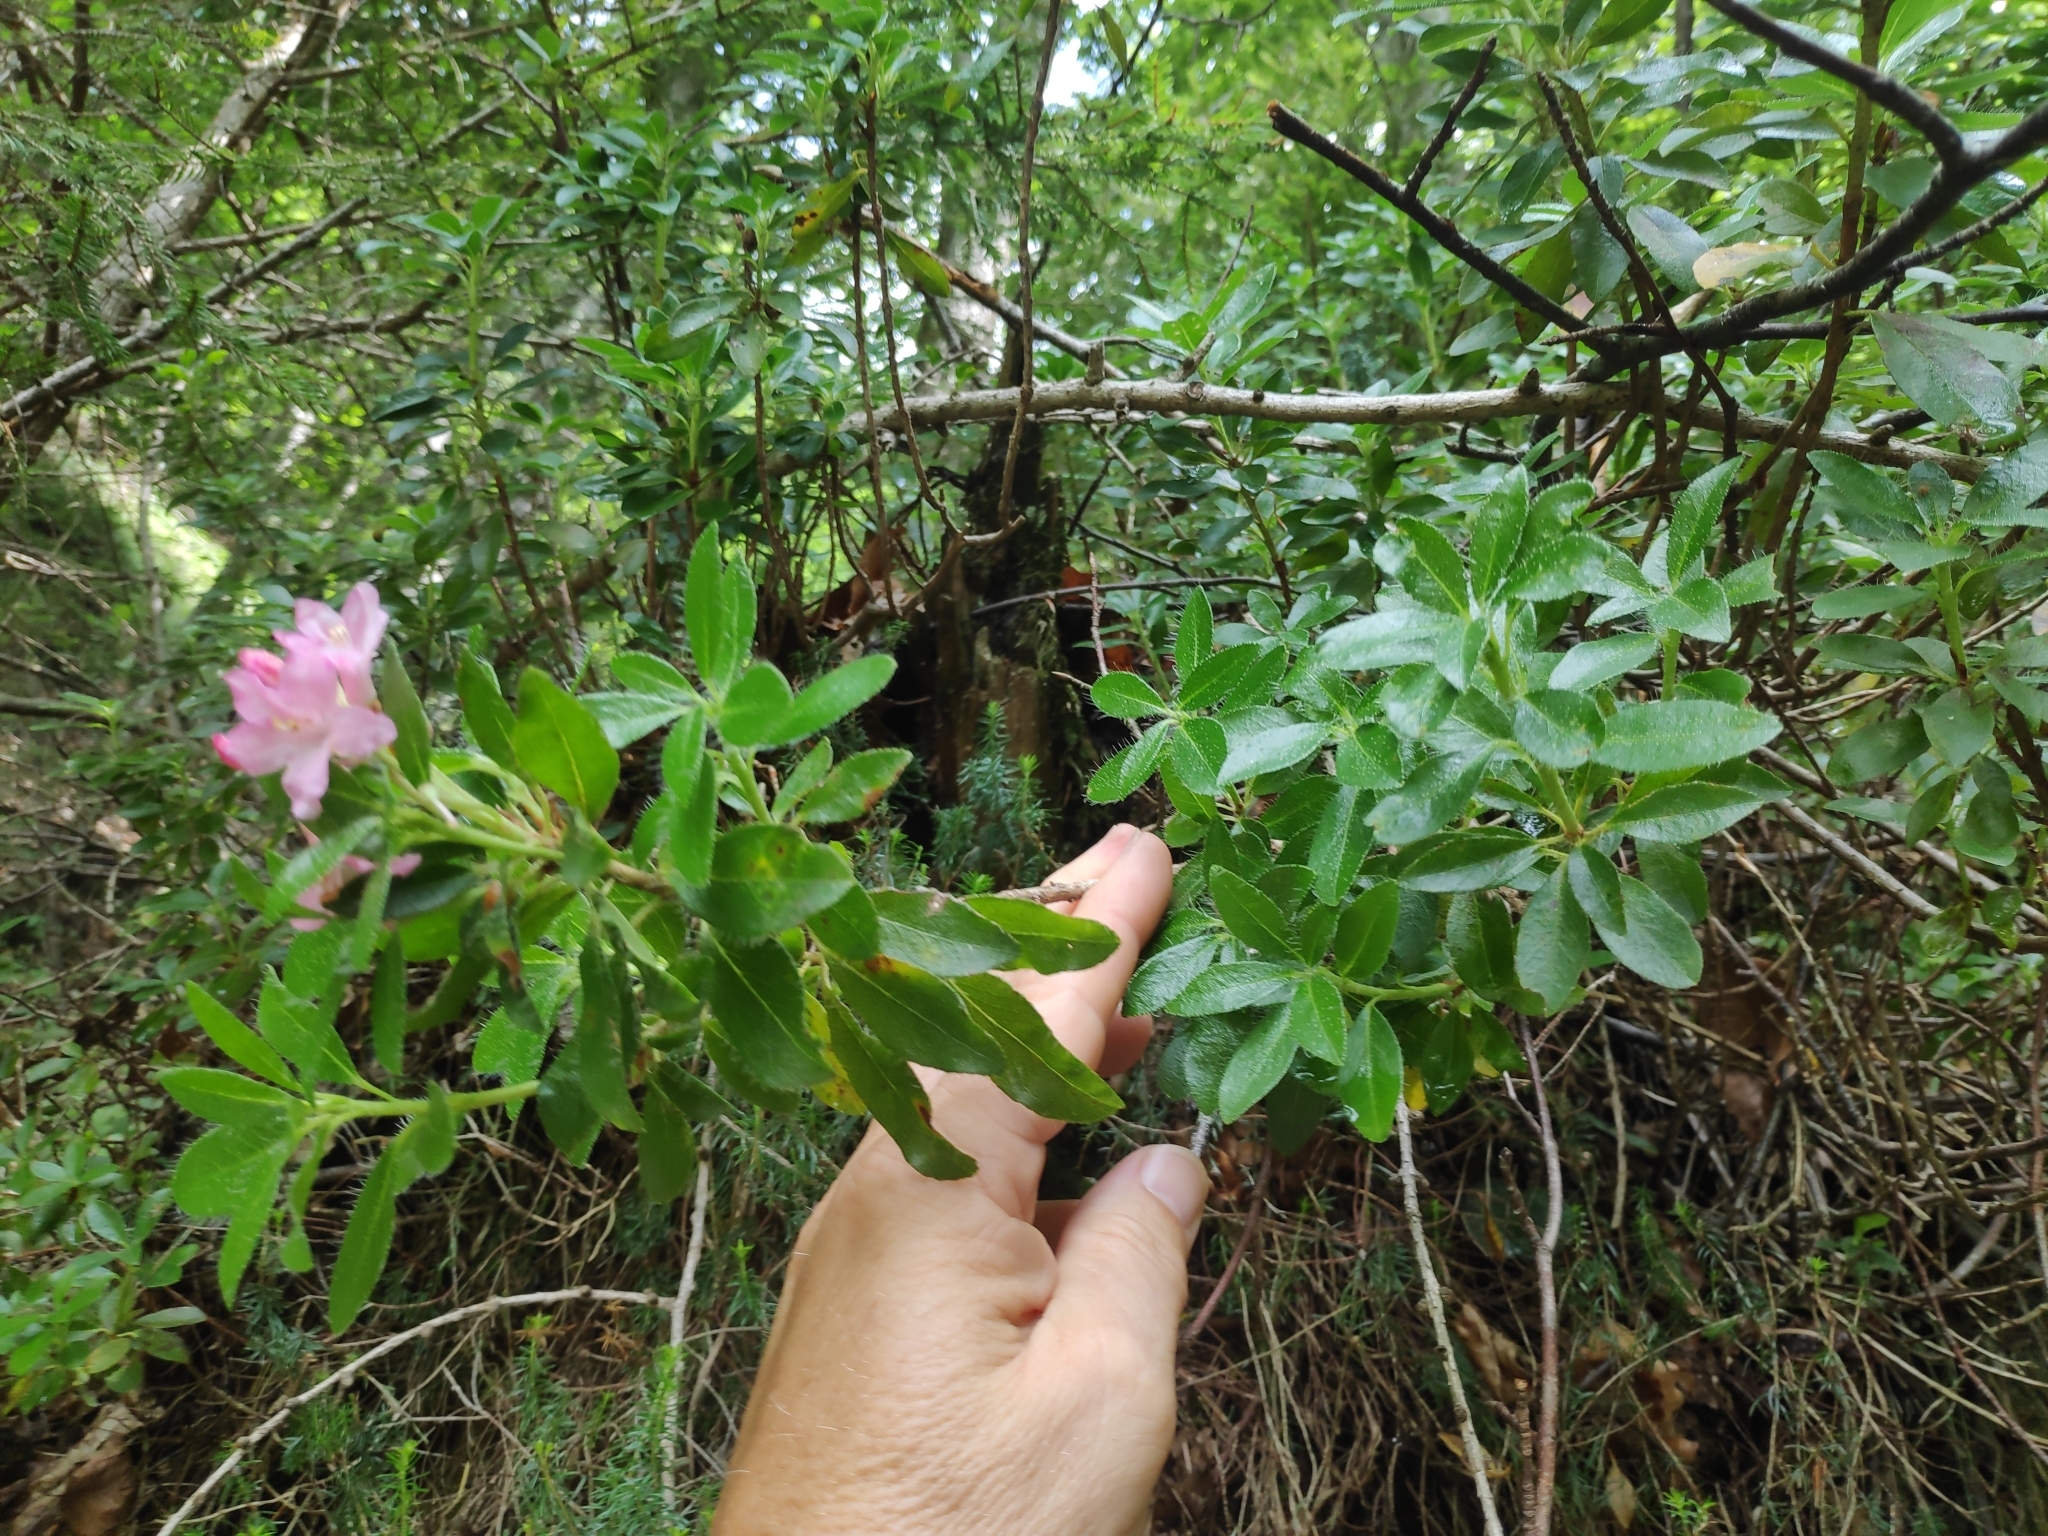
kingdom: Plantae
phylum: Tracheophyta
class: Magnoliopsida
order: Ericales
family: Ericaceae
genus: Rhododendron
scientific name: Rhododendron hirsutum
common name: Hairy alpenrose
